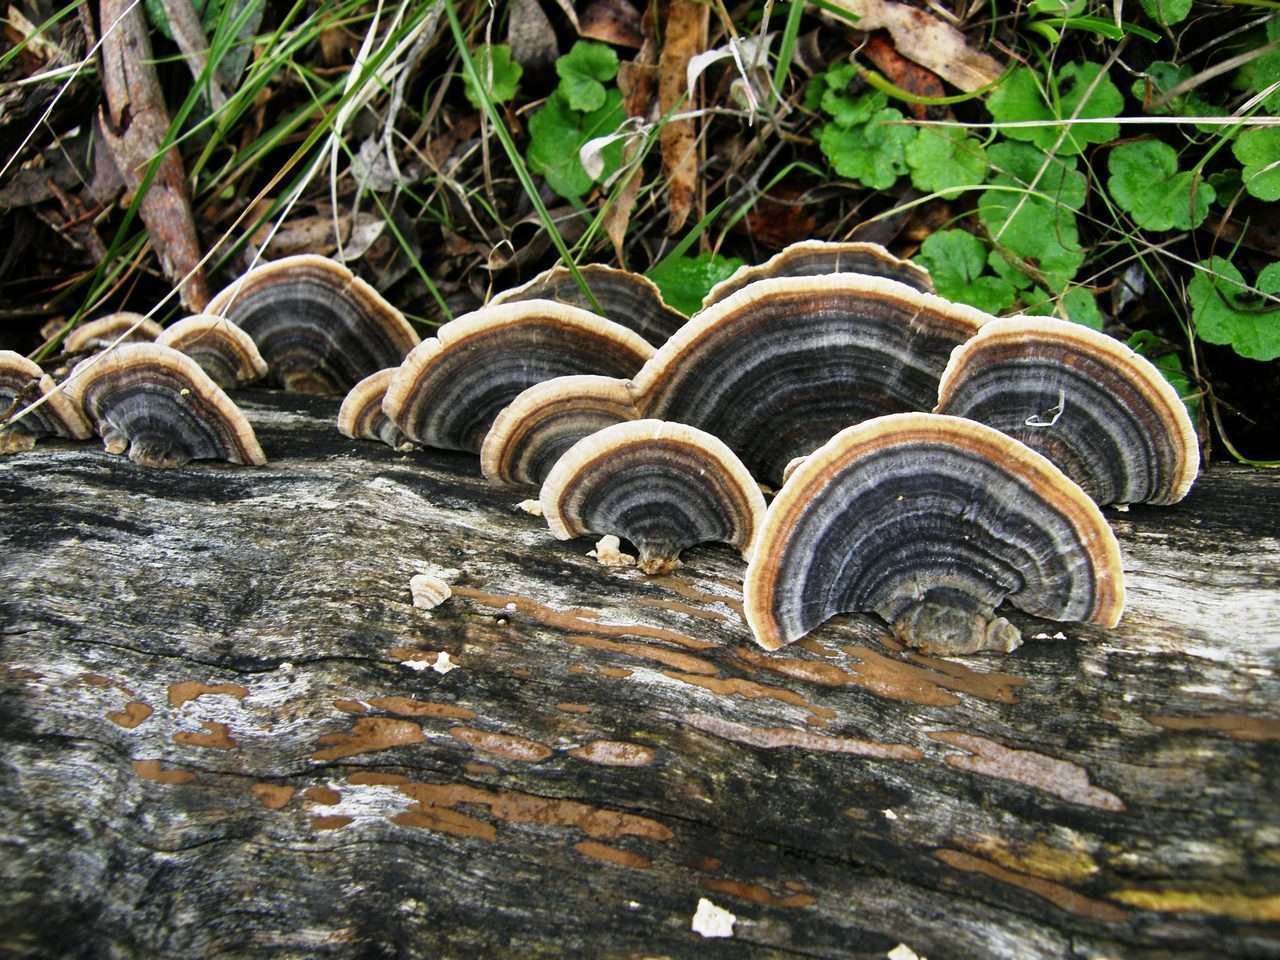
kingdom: Fungi
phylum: Basidiomycota
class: Agaricomycetes
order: Polyporales
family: Polyporaceae
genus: Trametes
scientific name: Trametes versicolor
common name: Turkeytail
